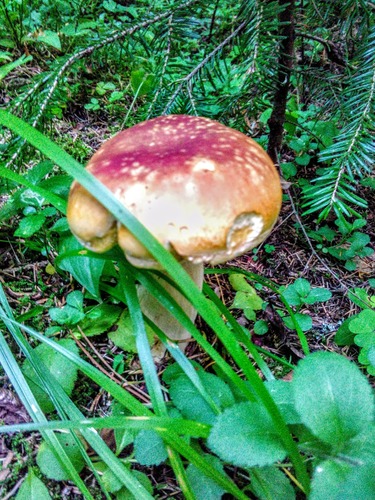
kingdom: Fungi
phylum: Basidiomycota
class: Agaricomycetes
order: Boletales
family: Boletaceae
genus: Boletus
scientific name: Boletus edulis
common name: Cep
